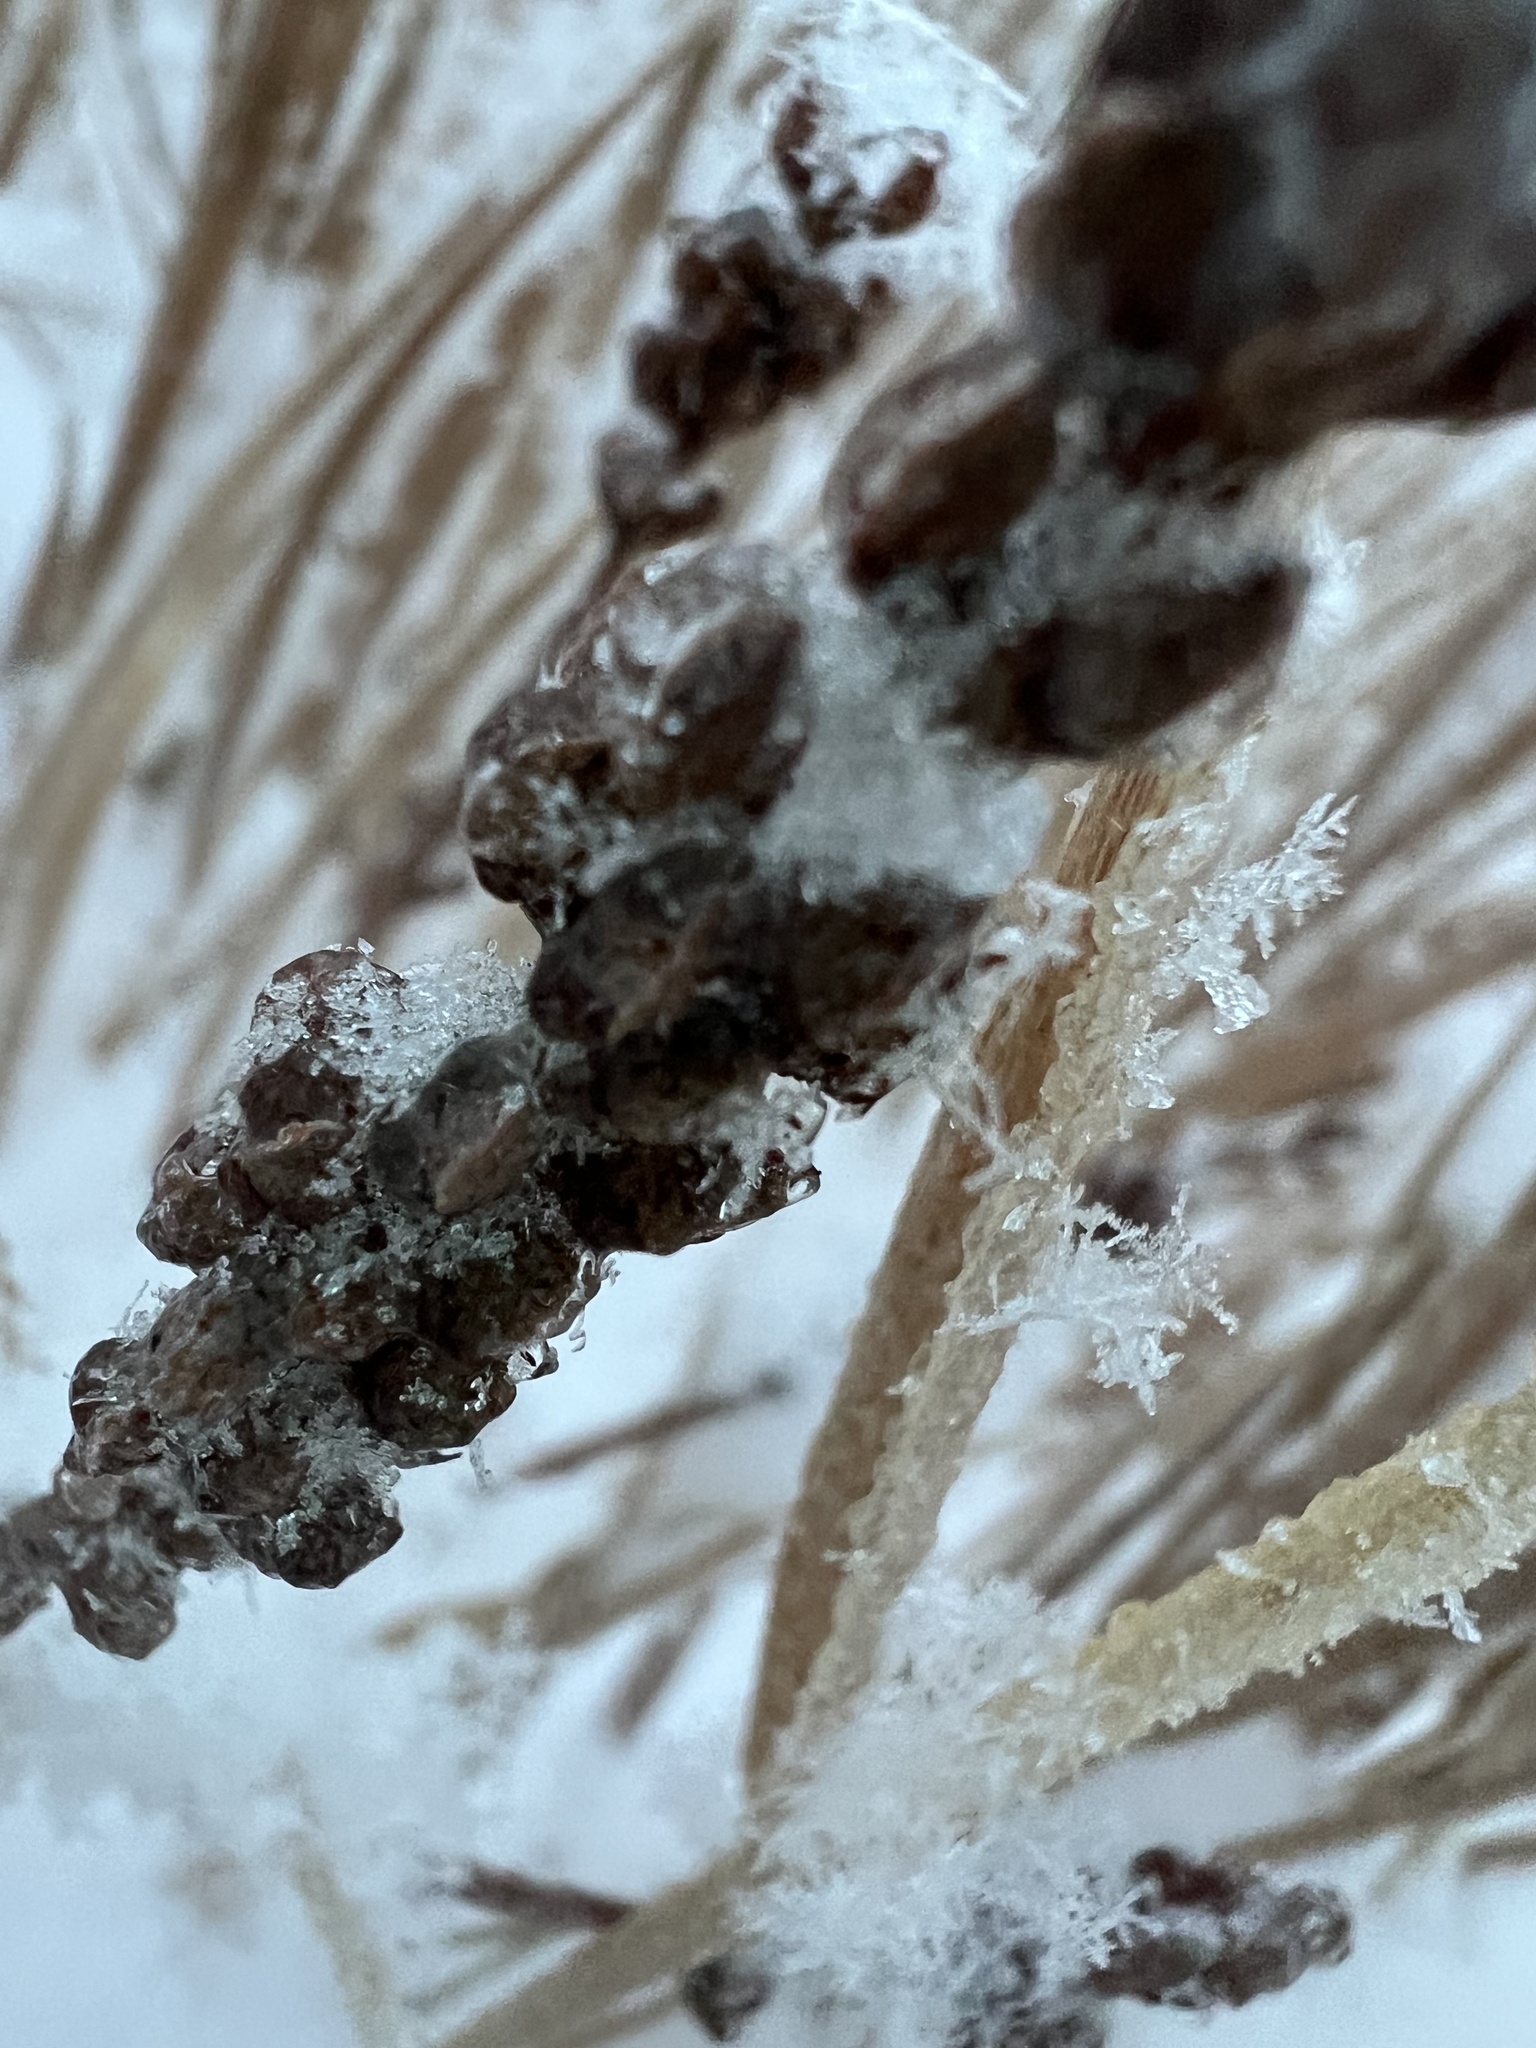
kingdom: Plantae
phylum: Tracheophyta
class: Magnoliopsida
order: Fabales
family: Fabaceae
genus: Amorpha
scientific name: Amorpha nana
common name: Fragrant false indigo
